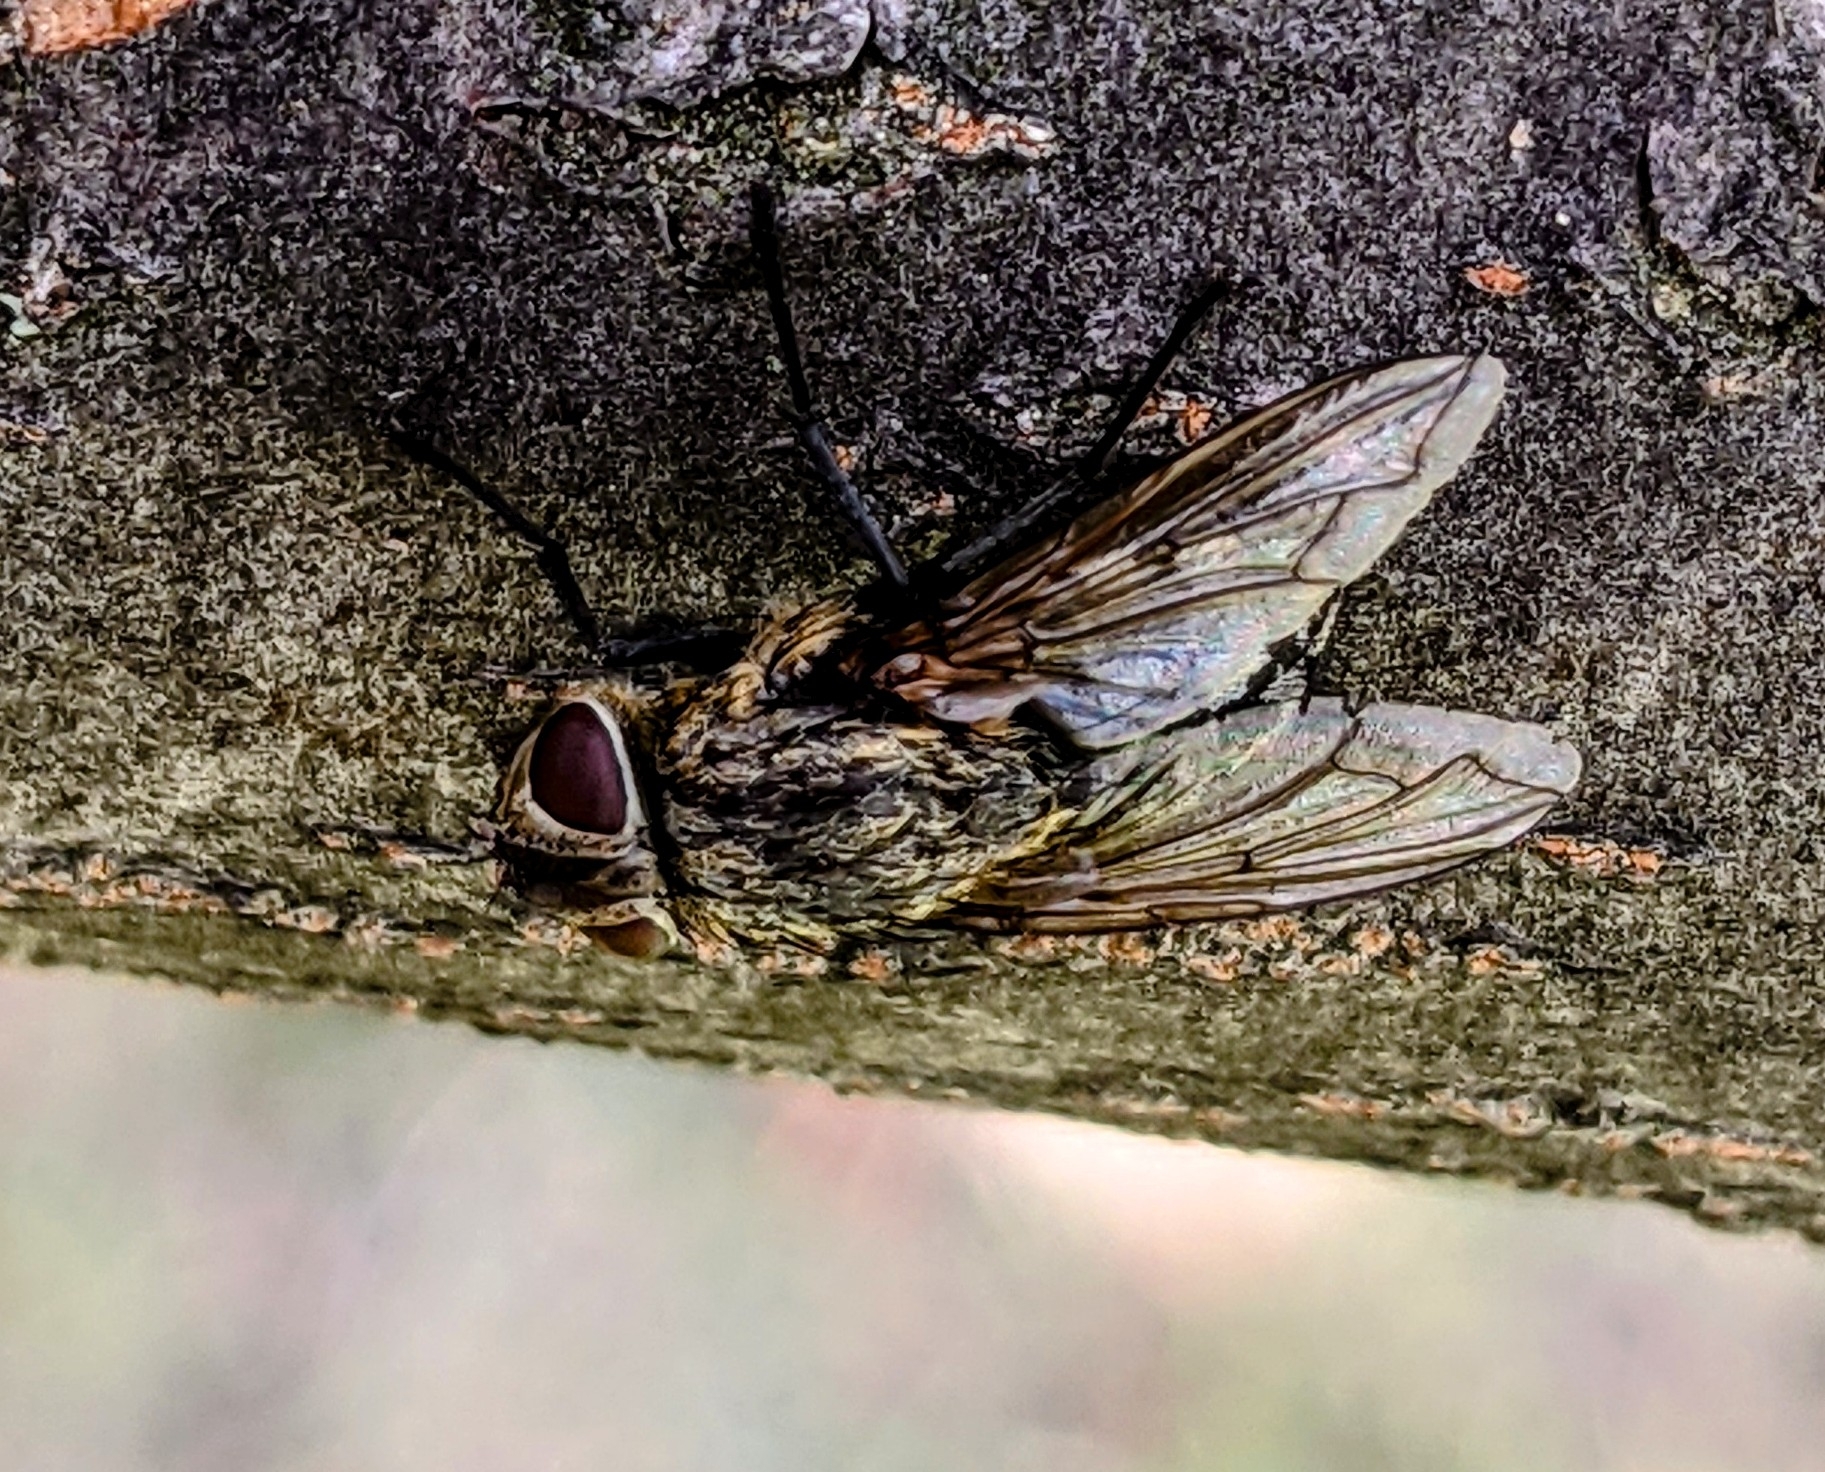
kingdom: Animalia
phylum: Arthropoda
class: Insecta
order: Diptera
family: Polleniidae
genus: Pollenia
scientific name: Pollenia
